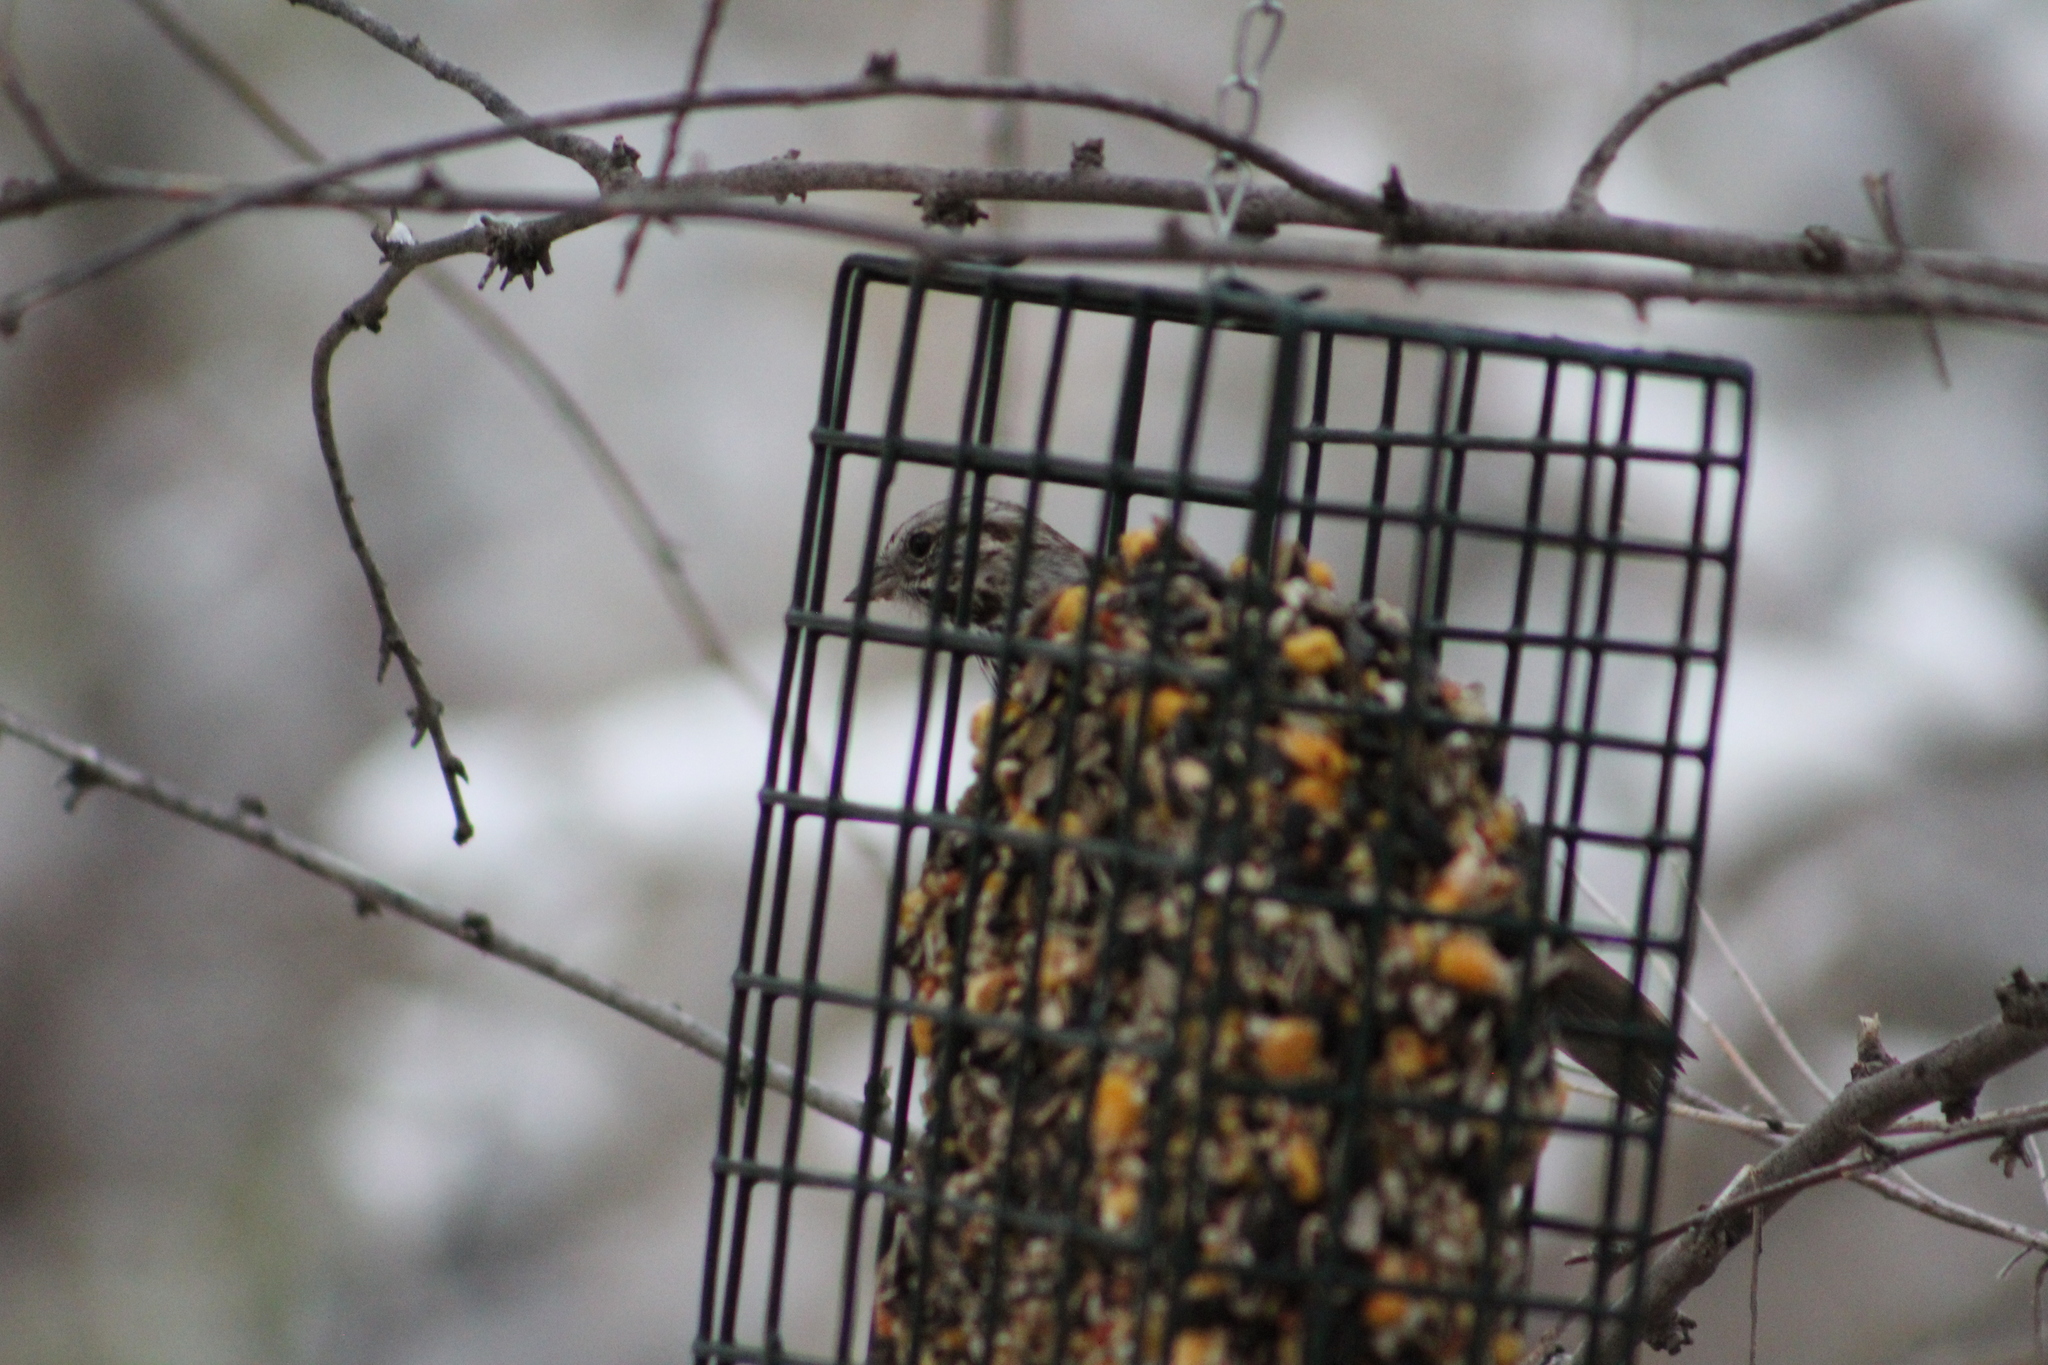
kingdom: Animalia
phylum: Chordata
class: Aves
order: Passeriformes
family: Passerellidae
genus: Melospiza
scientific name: Melospiza melodia
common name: Song sparrow
